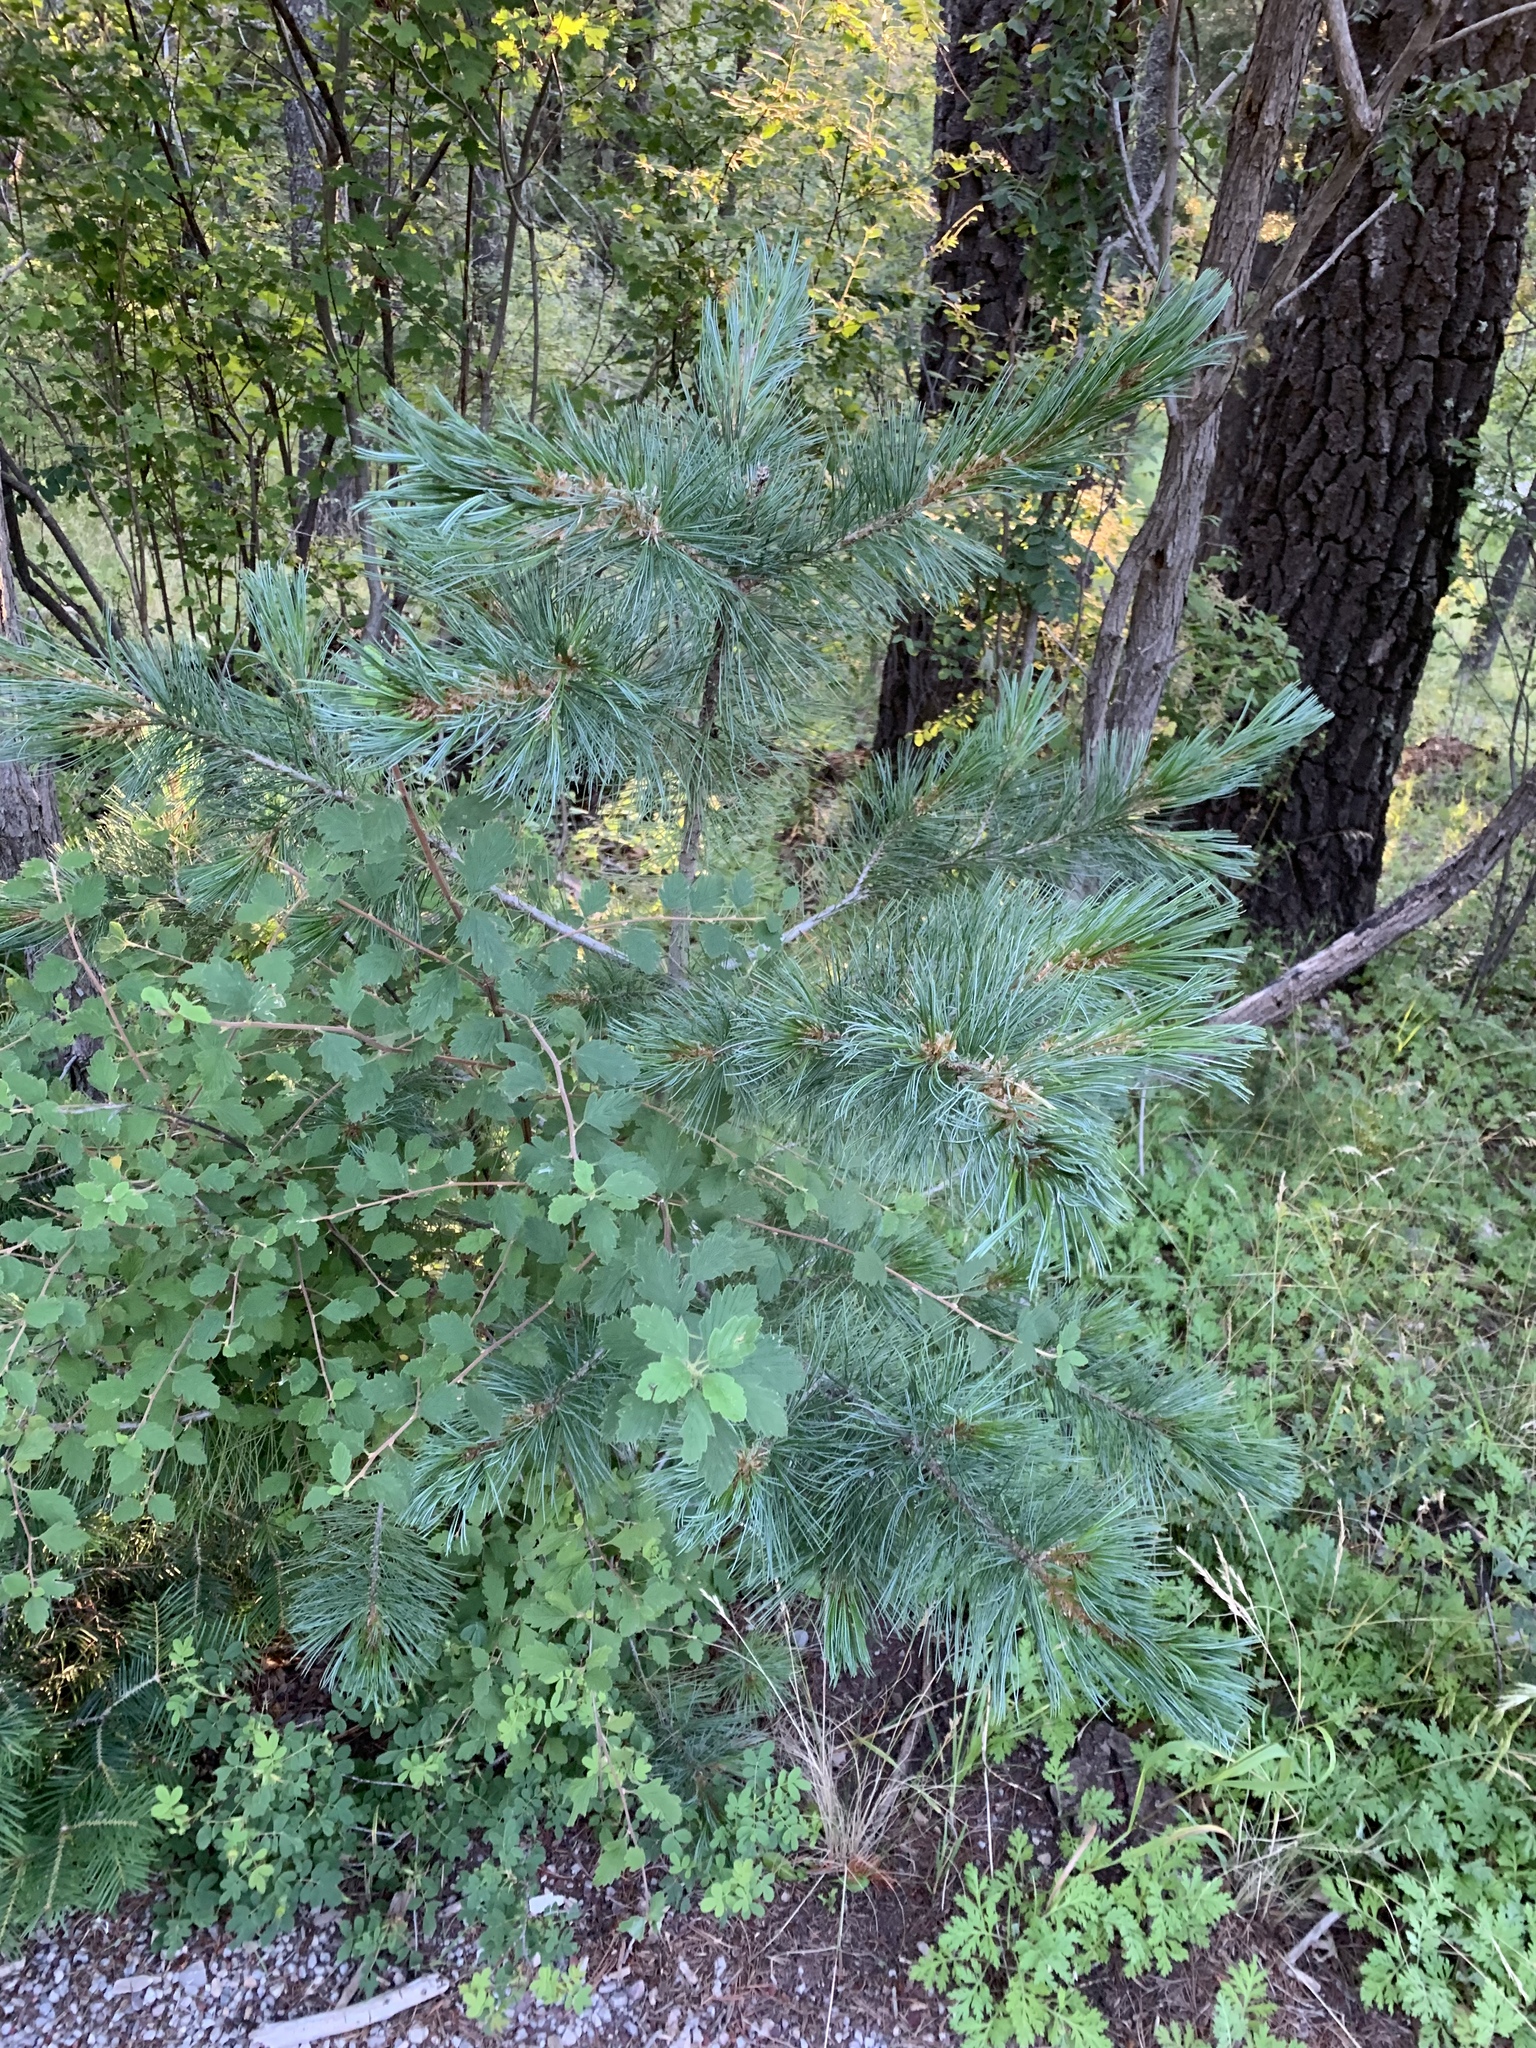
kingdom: Plantae
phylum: Tracheophyta
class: Pinopsida
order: Pinales
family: Pinaceae
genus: Pinus
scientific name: Pinus strobiformis
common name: Southwestern white pine
